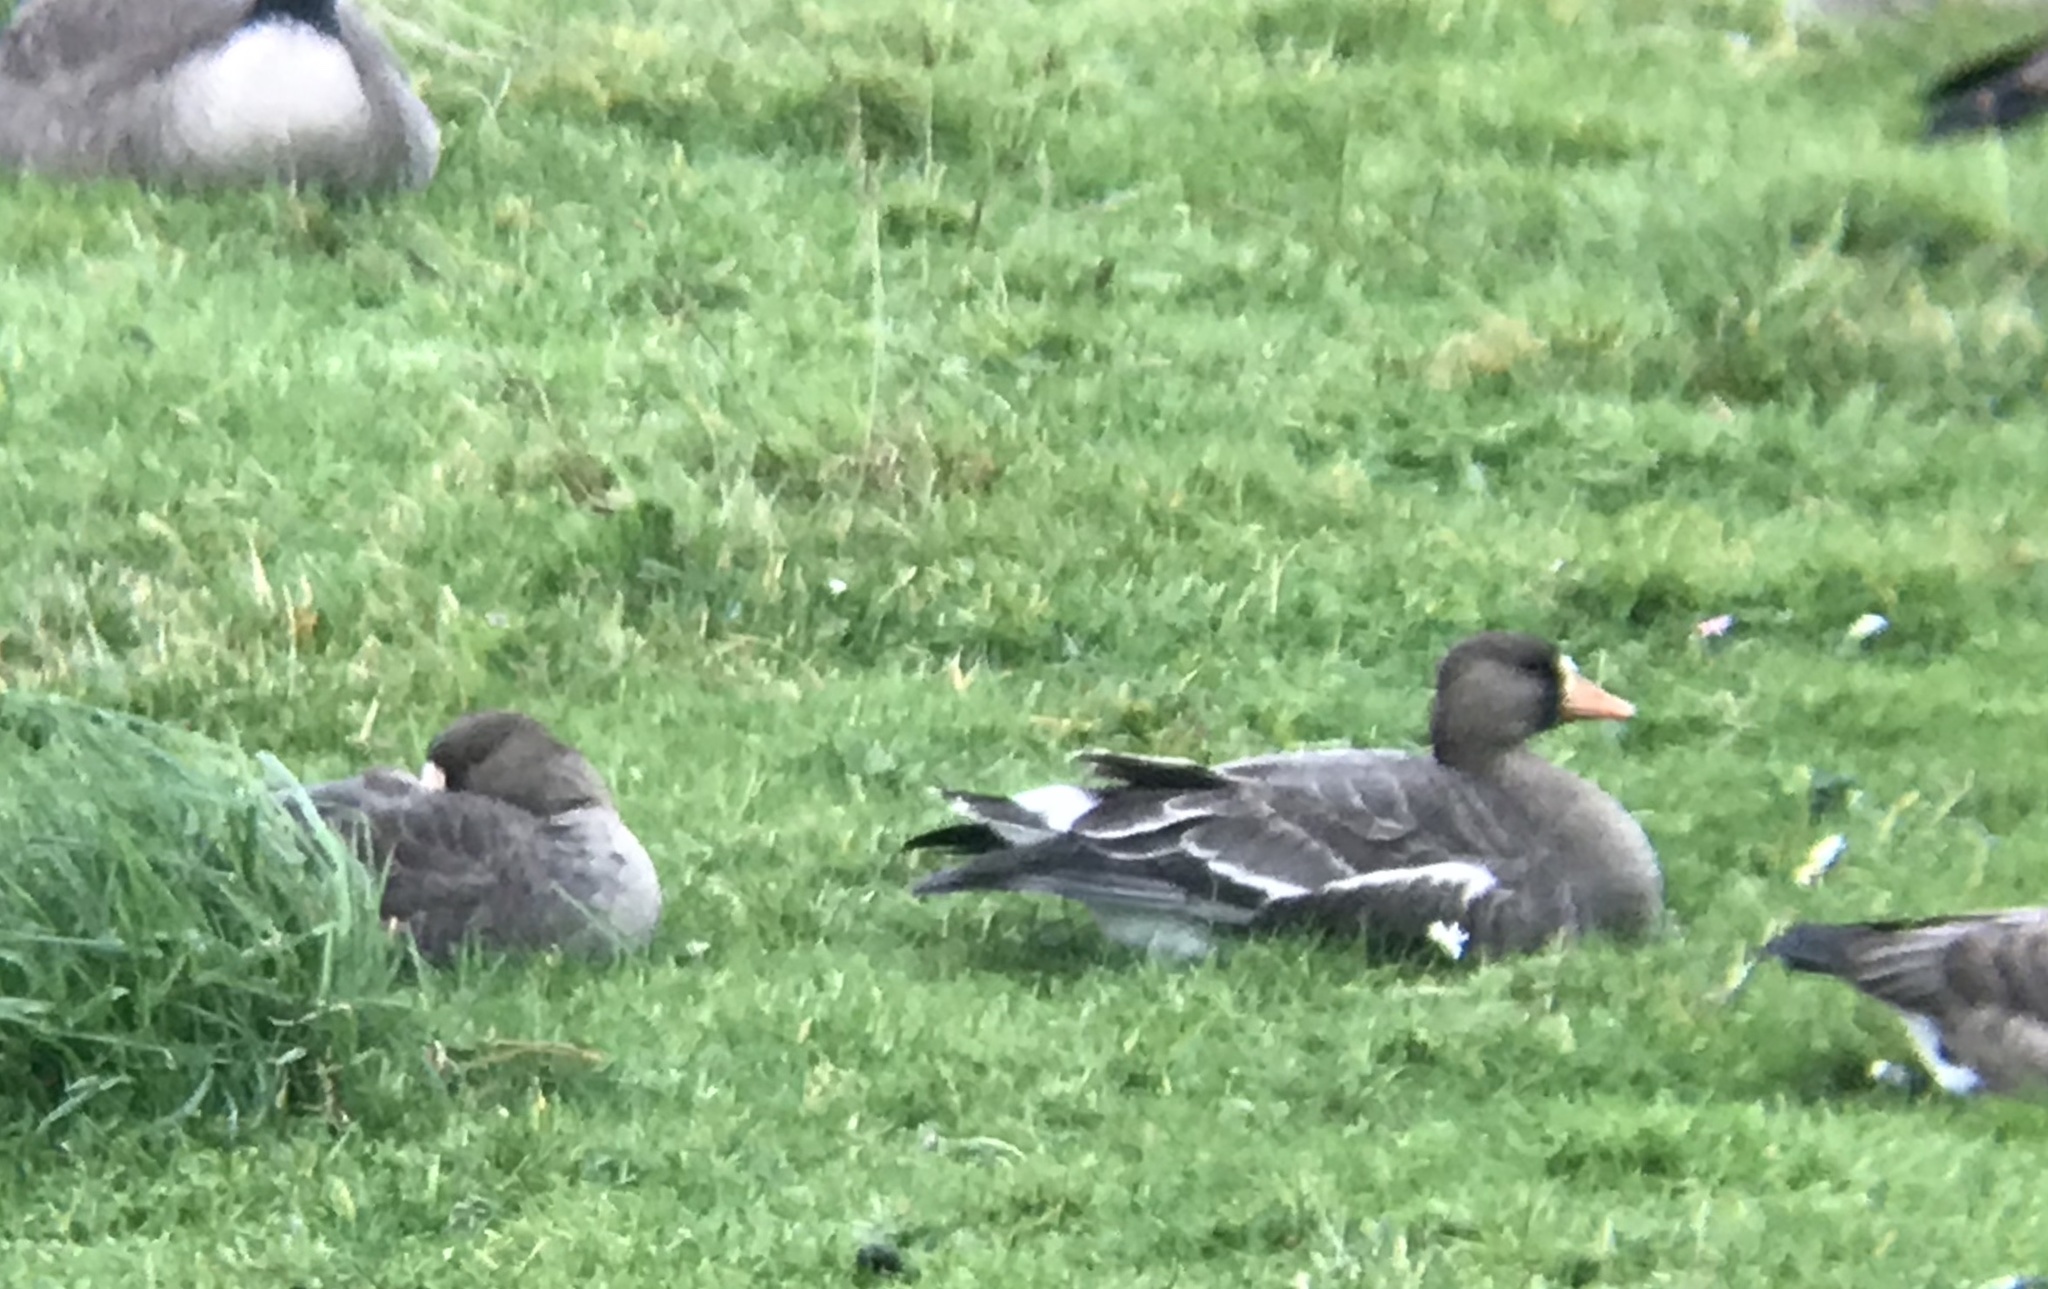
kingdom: Animalia
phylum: Chordata
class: Aves
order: Anseriformes
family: Anatidae
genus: Anser
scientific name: Anser albifrons
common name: Greater white-fronted goose
